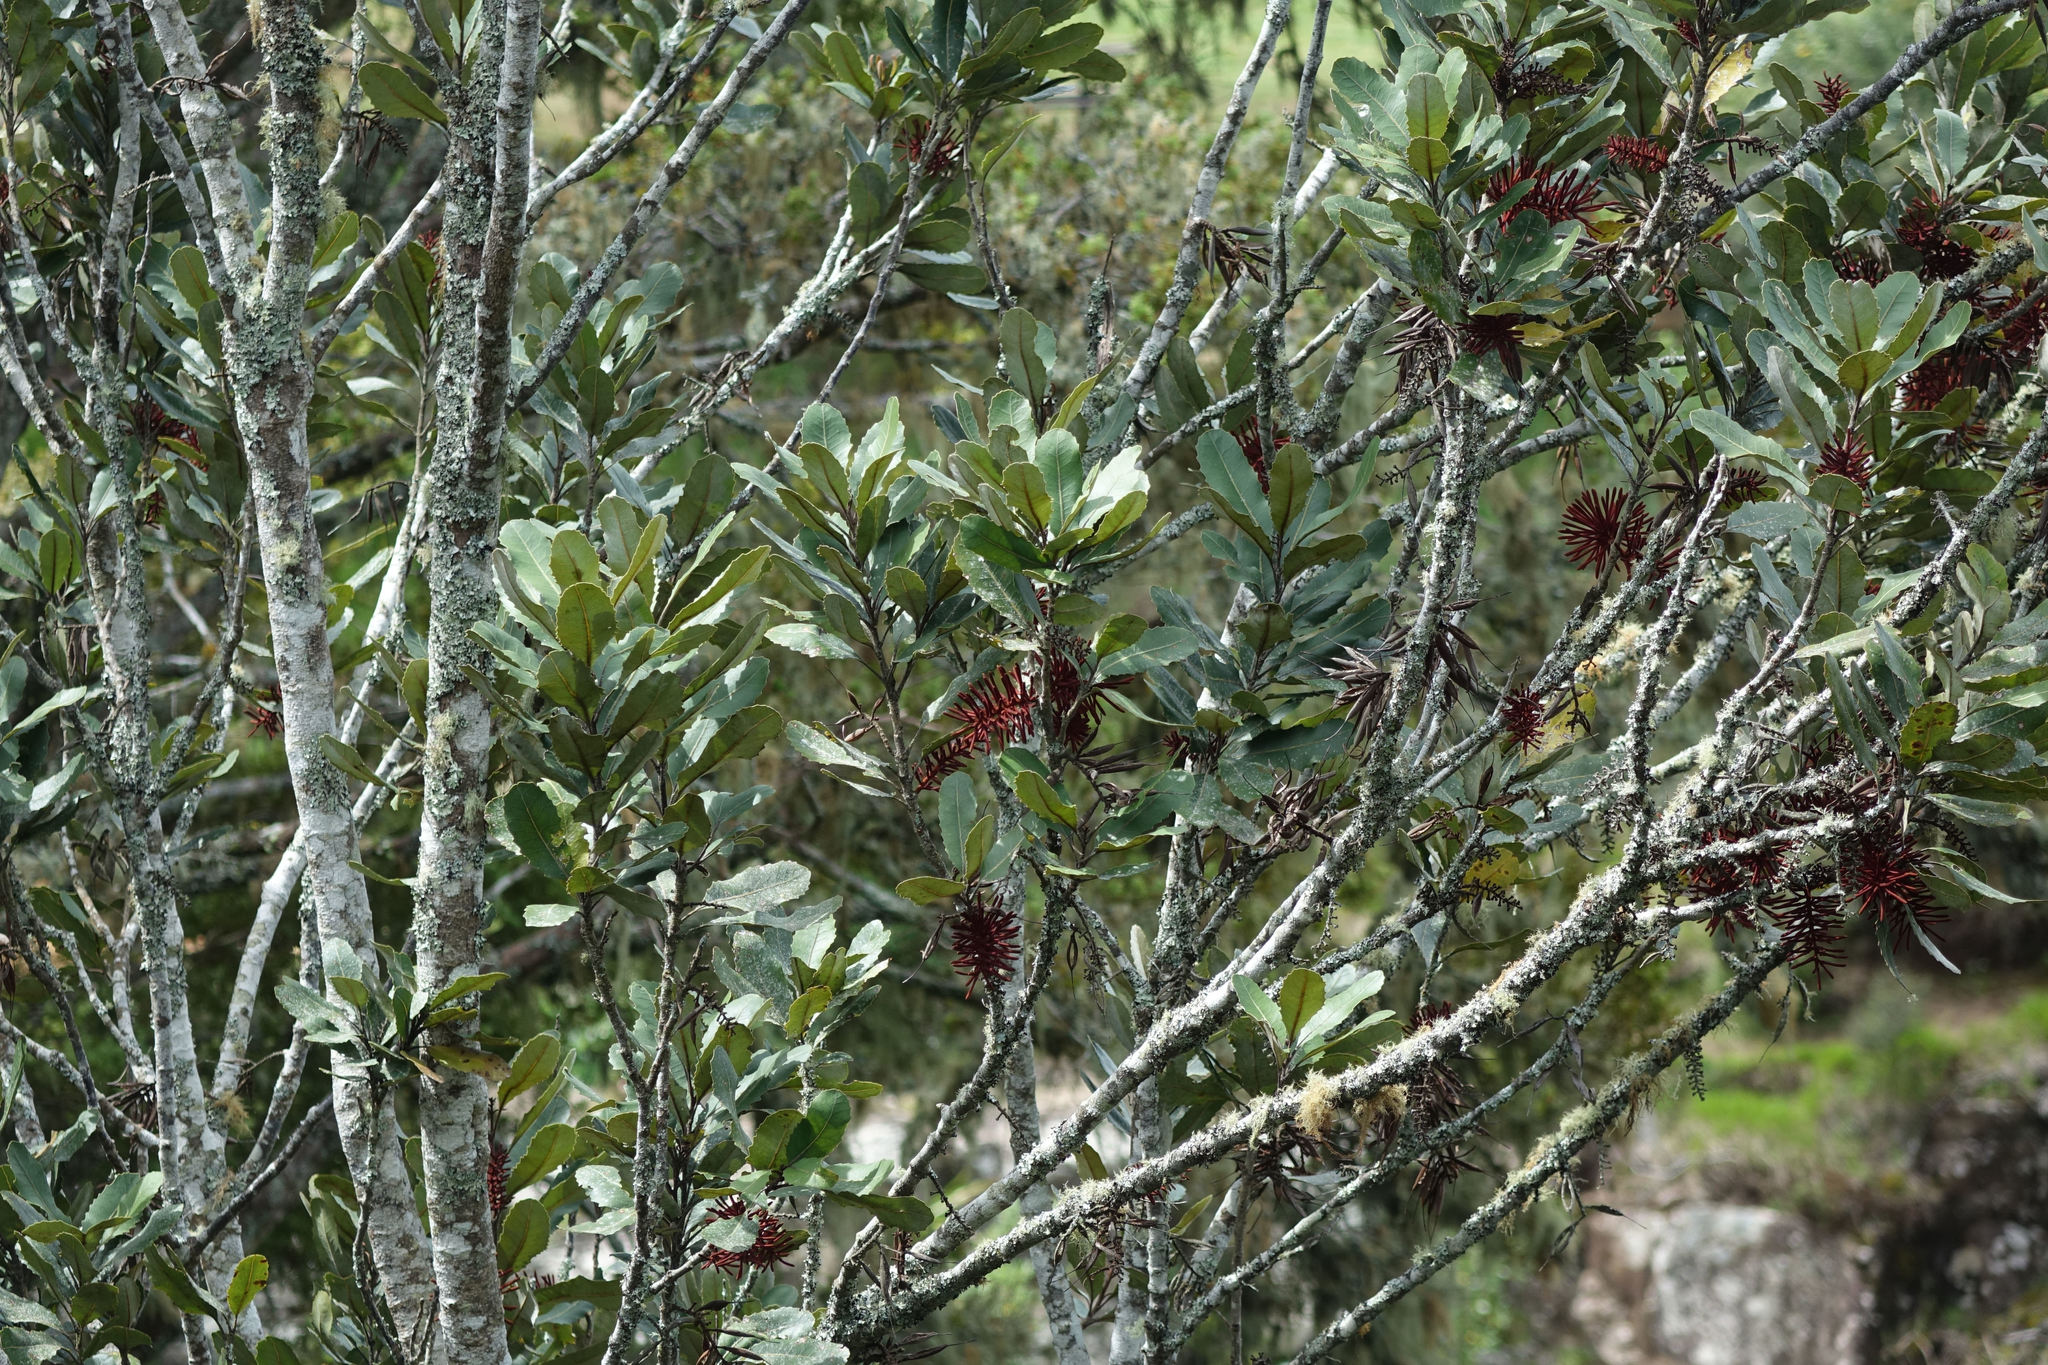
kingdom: Plantae
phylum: Tracheophyta
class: Magnoliopsida
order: Proteales
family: Proteaceae
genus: Knightia
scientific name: Knightia excelsa
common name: New zealand-honeysuckle
